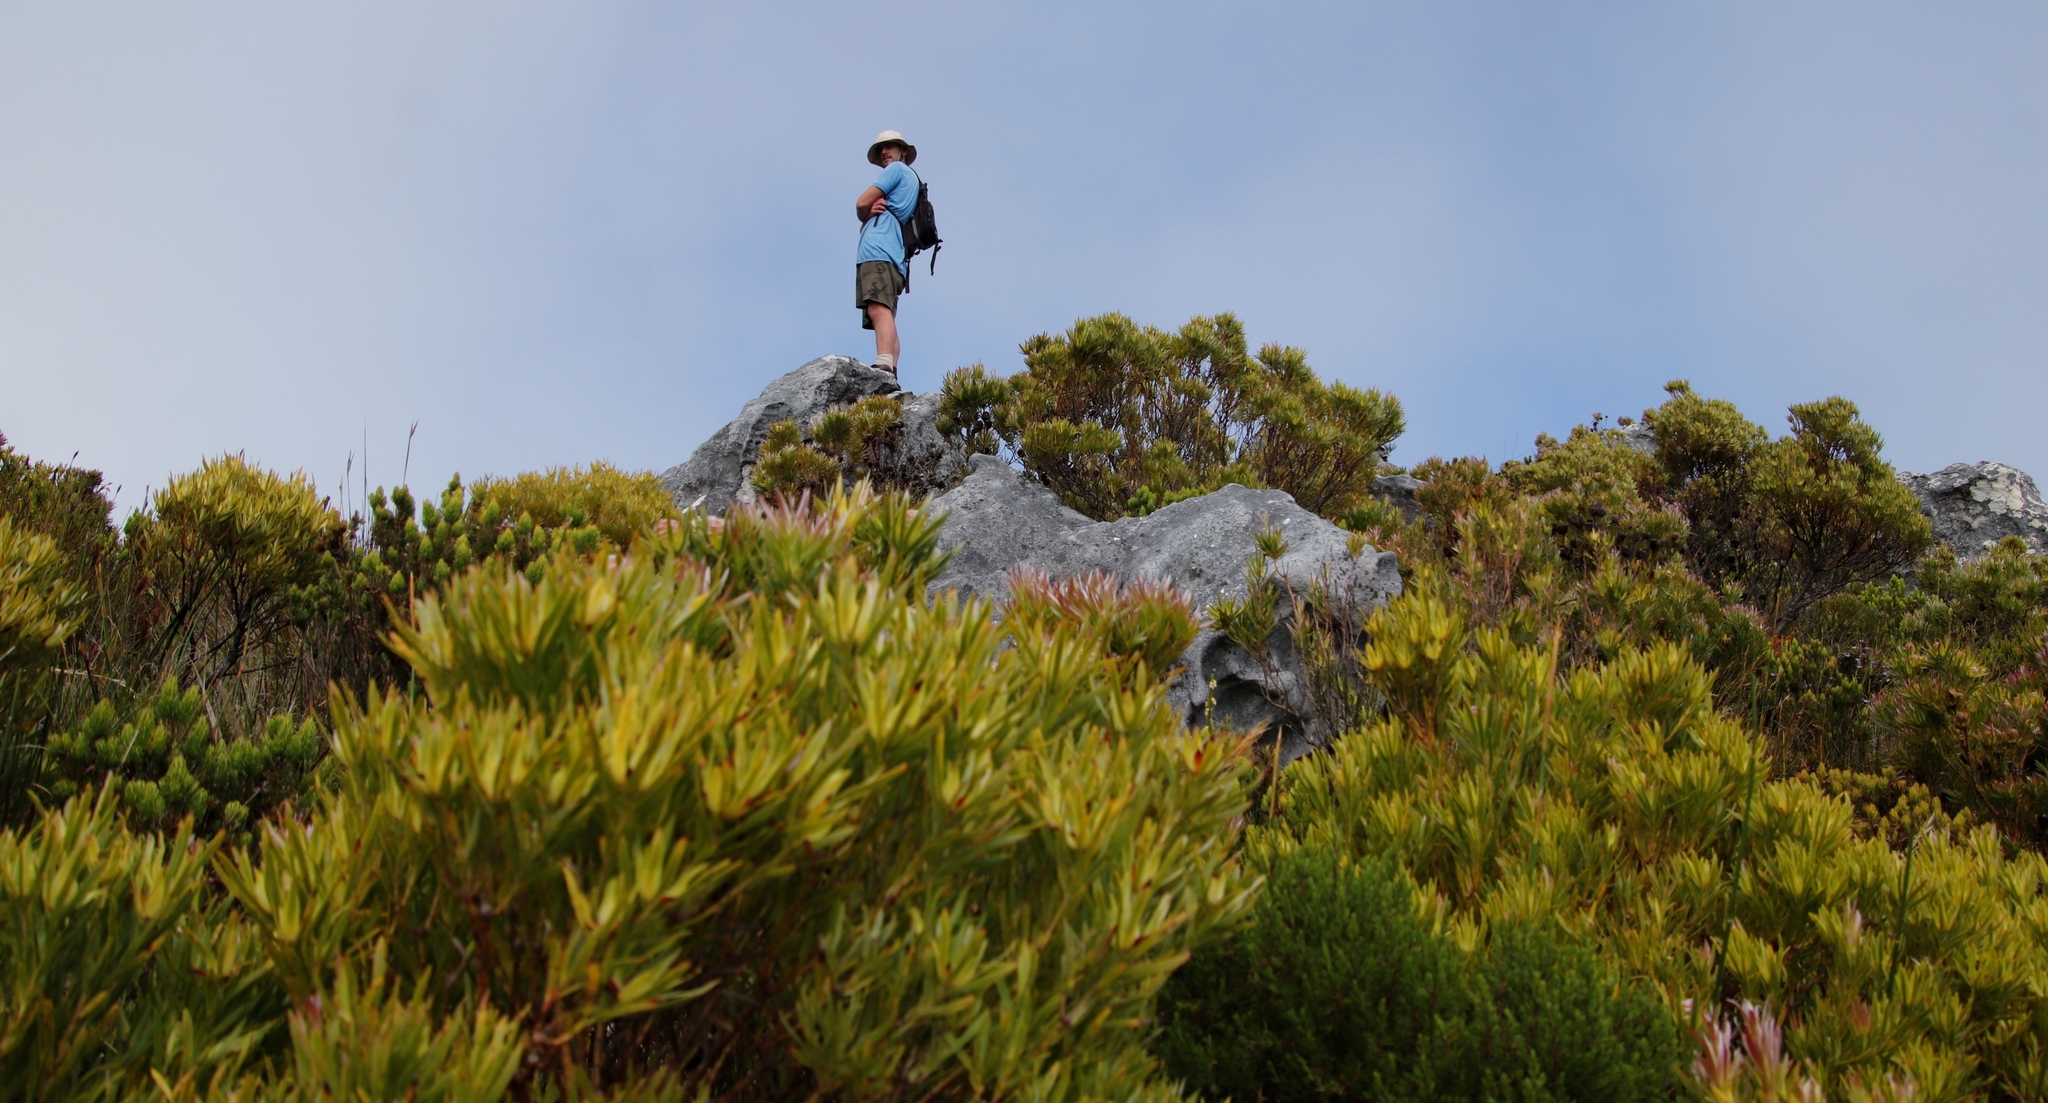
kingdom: Plantae
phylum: Tracheophyta
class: Magnoliopsida
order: Proteales
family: Proteaceae
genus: Leucadendron
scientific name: Leucadendron xanthoconus
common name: Sickle-leaf conebush
